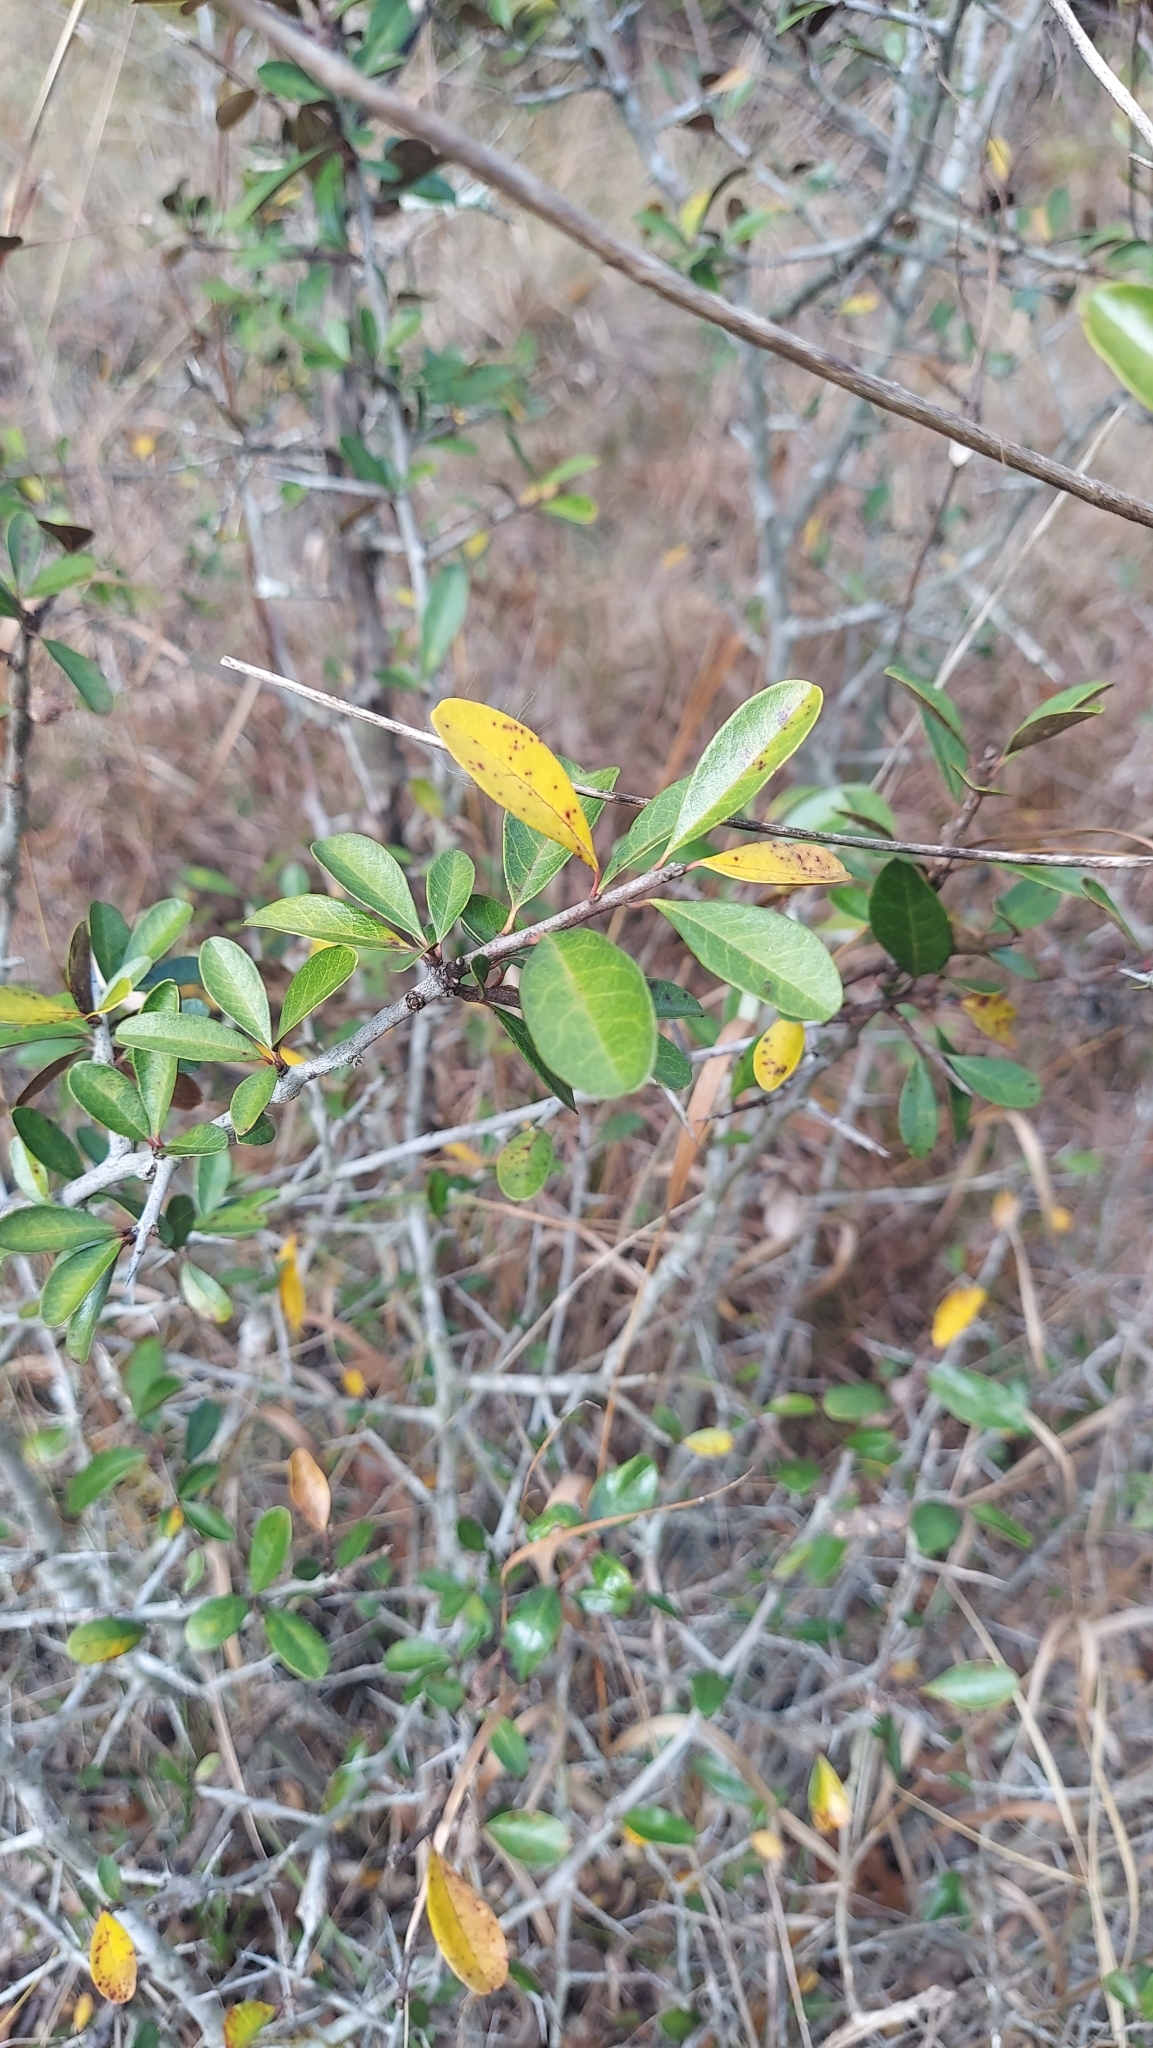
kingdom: Plantae
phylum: Tracheophyta
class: Magnoliopsida
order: Ericales
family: Sapotaceae
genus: Sideroxylon
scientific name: Sideroxylon tenax
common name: Tough-buckthorn
